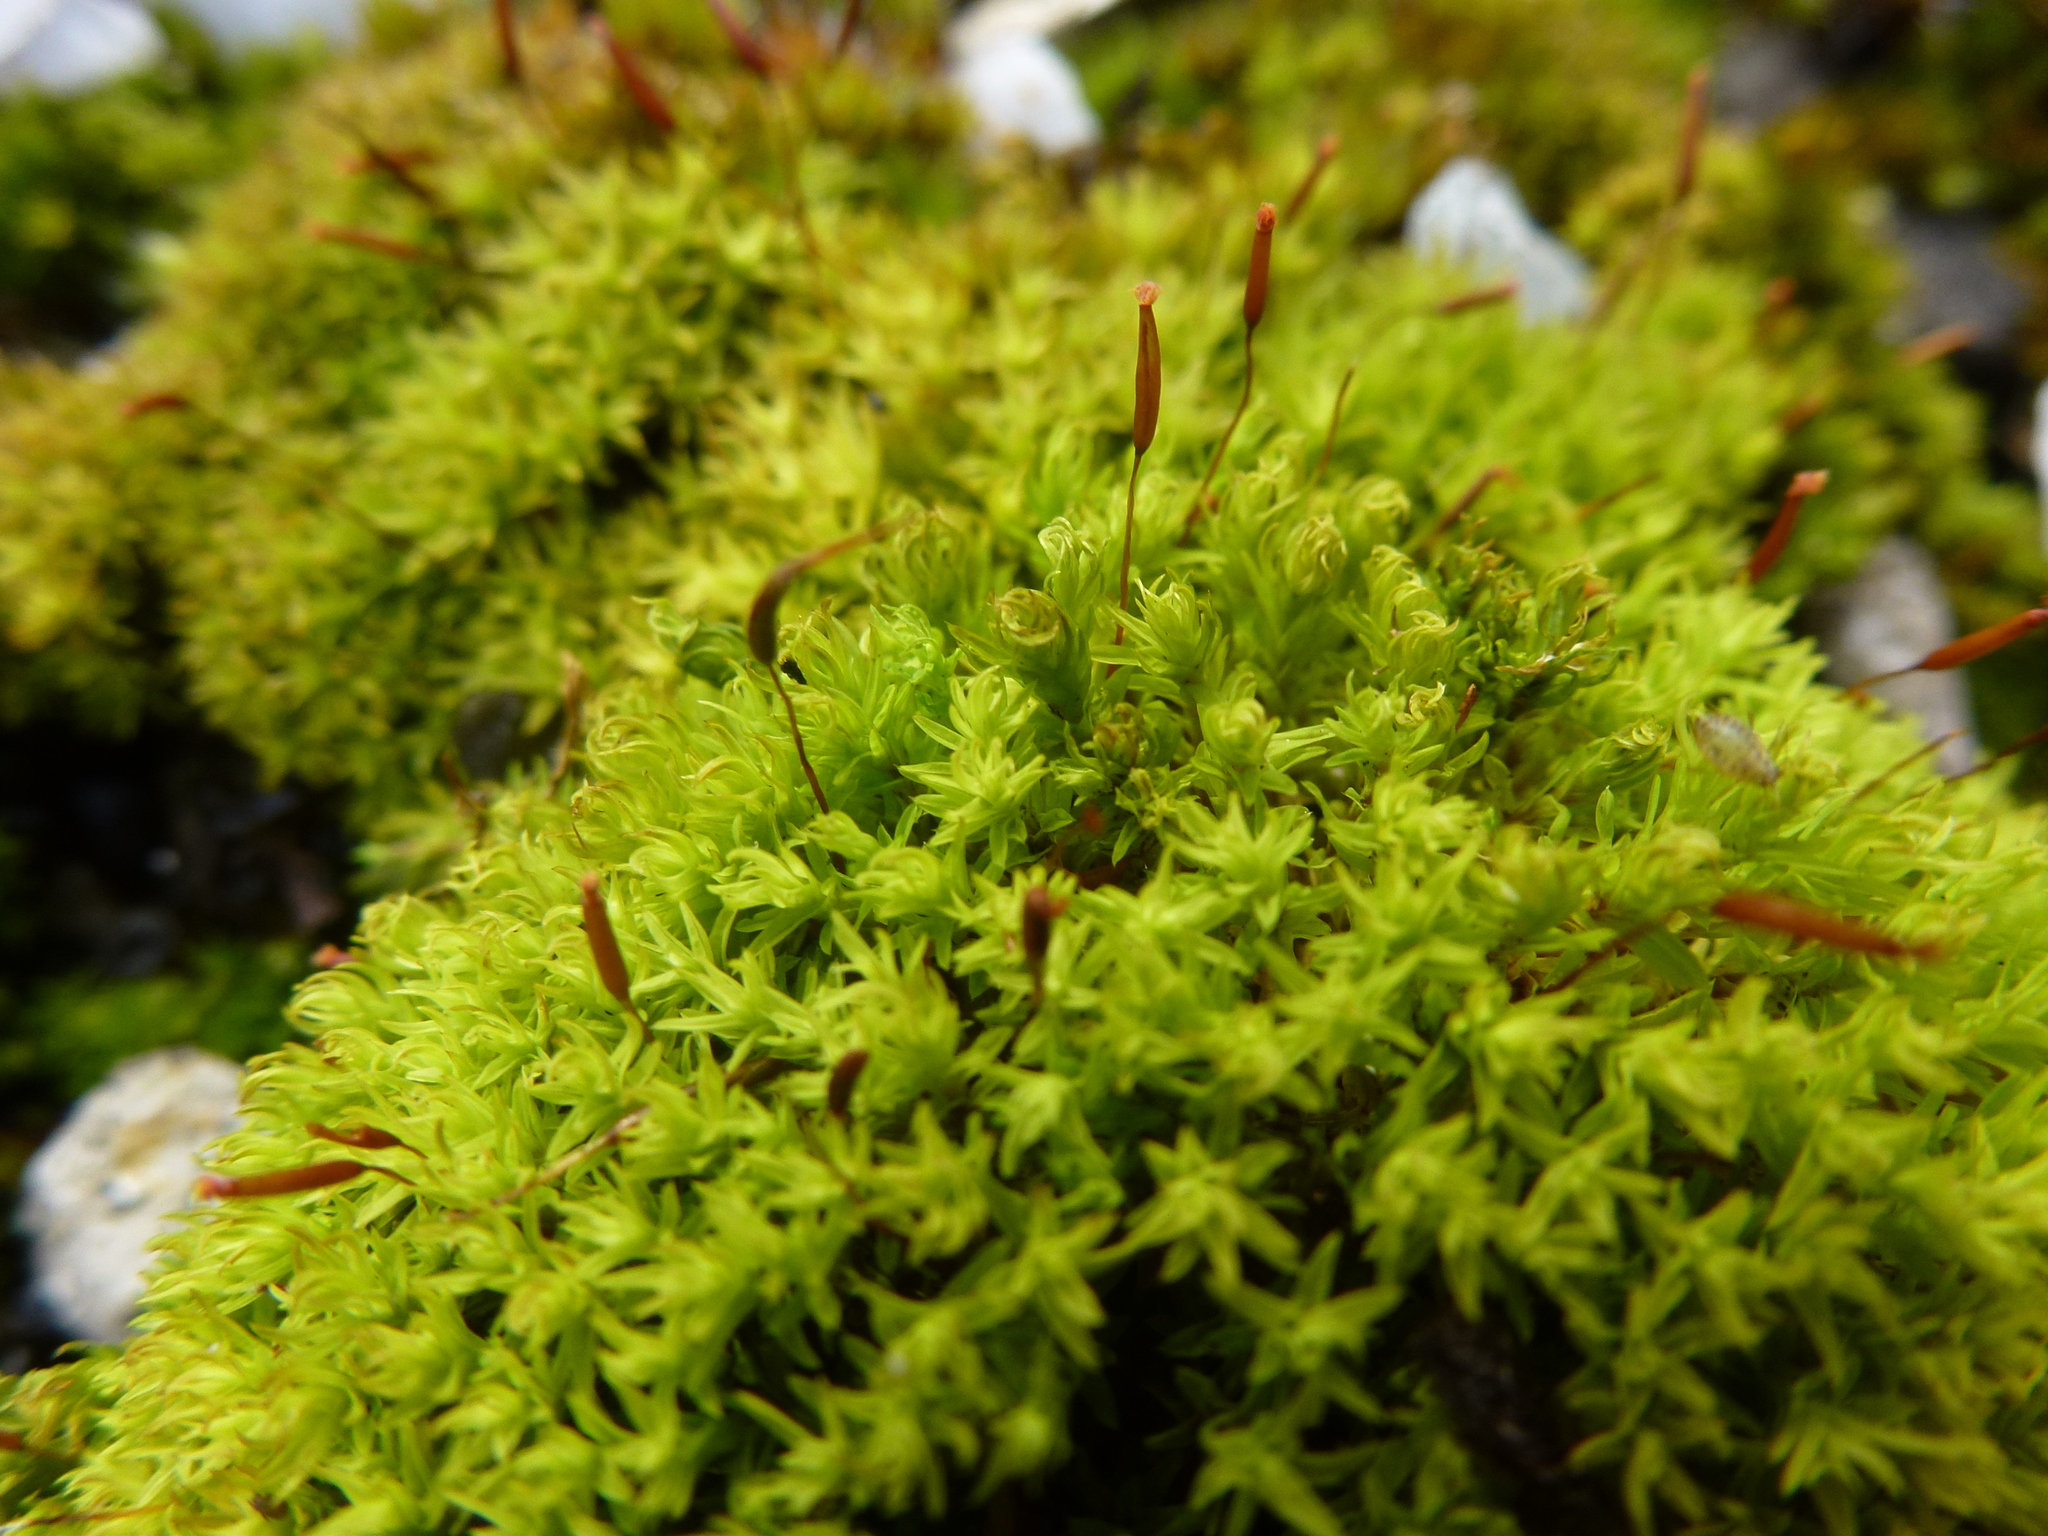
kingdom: Plantae
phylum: Bryophyta
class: Bryopsida
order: Pottiales
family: Pottiaceae
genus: Barbula
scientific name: Barbula unguiculata
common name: Prickly beard moss
